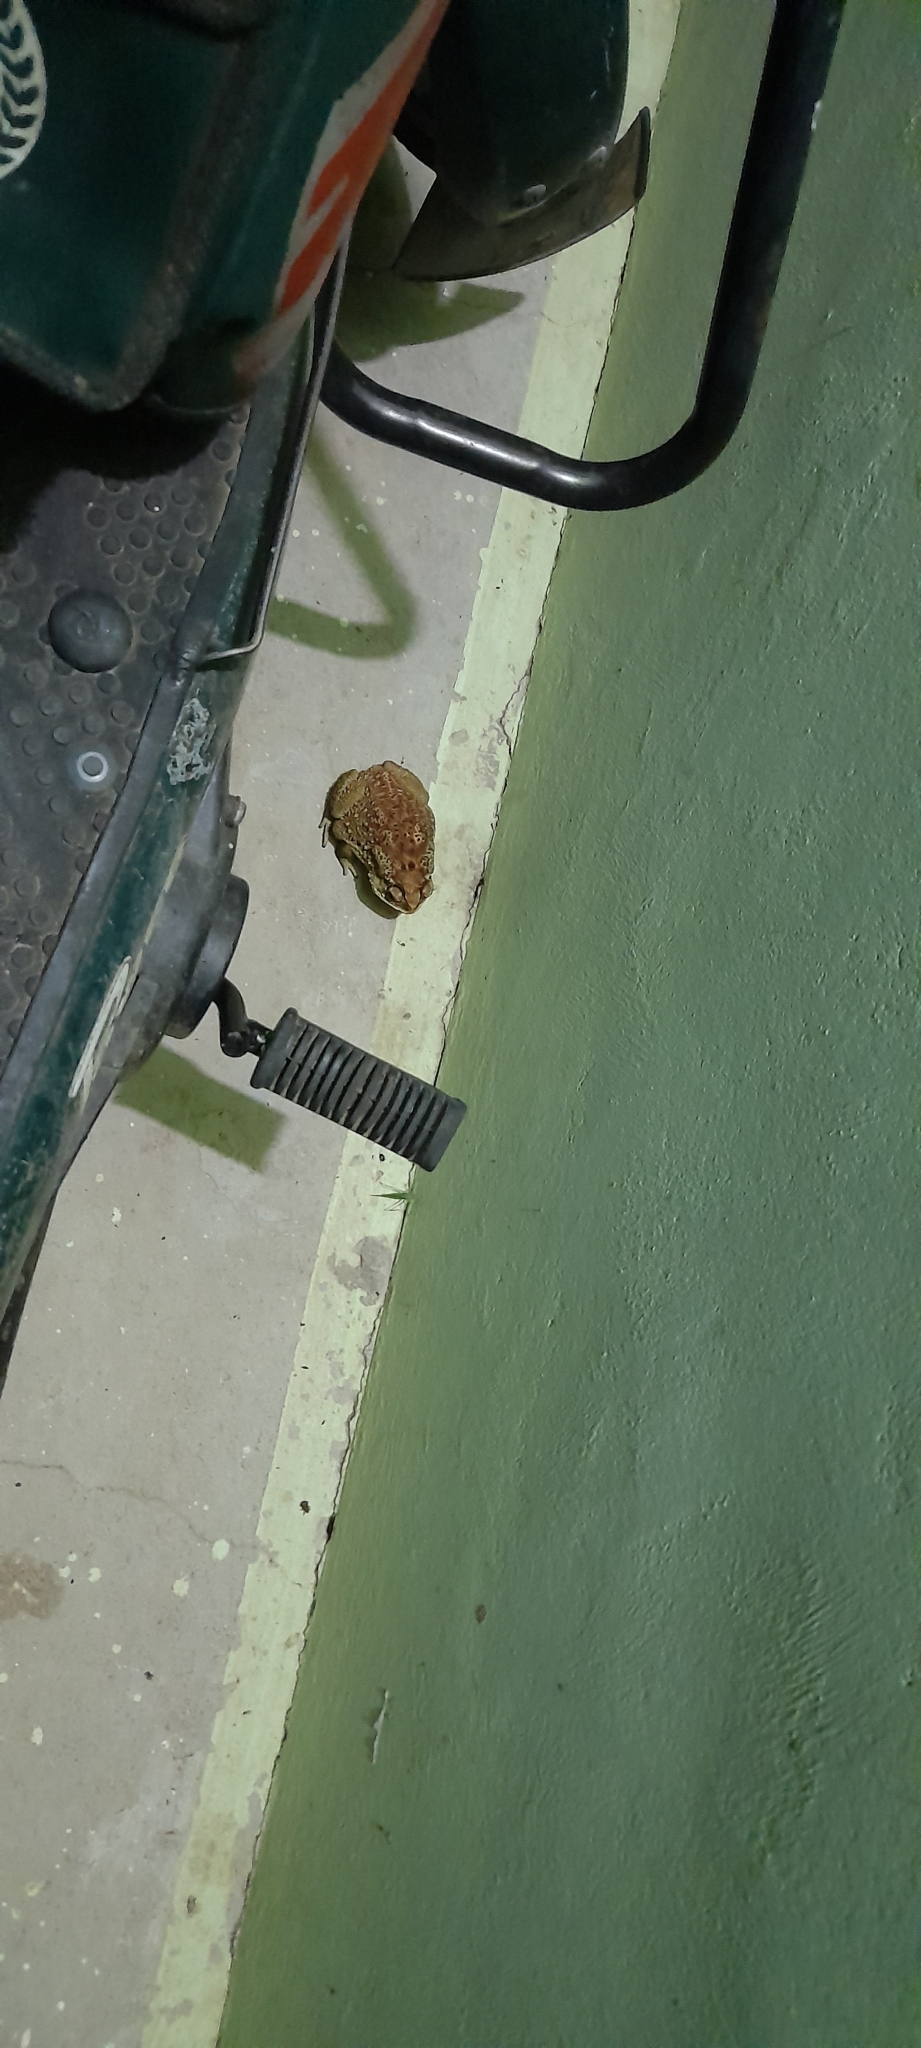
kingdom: Animalia
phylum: Chordata
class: Amphibia
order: Anura
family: Bufonidae
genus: Duttaphrynus
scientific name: Duttaphrynus melanostictus
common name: Common sunda toad
